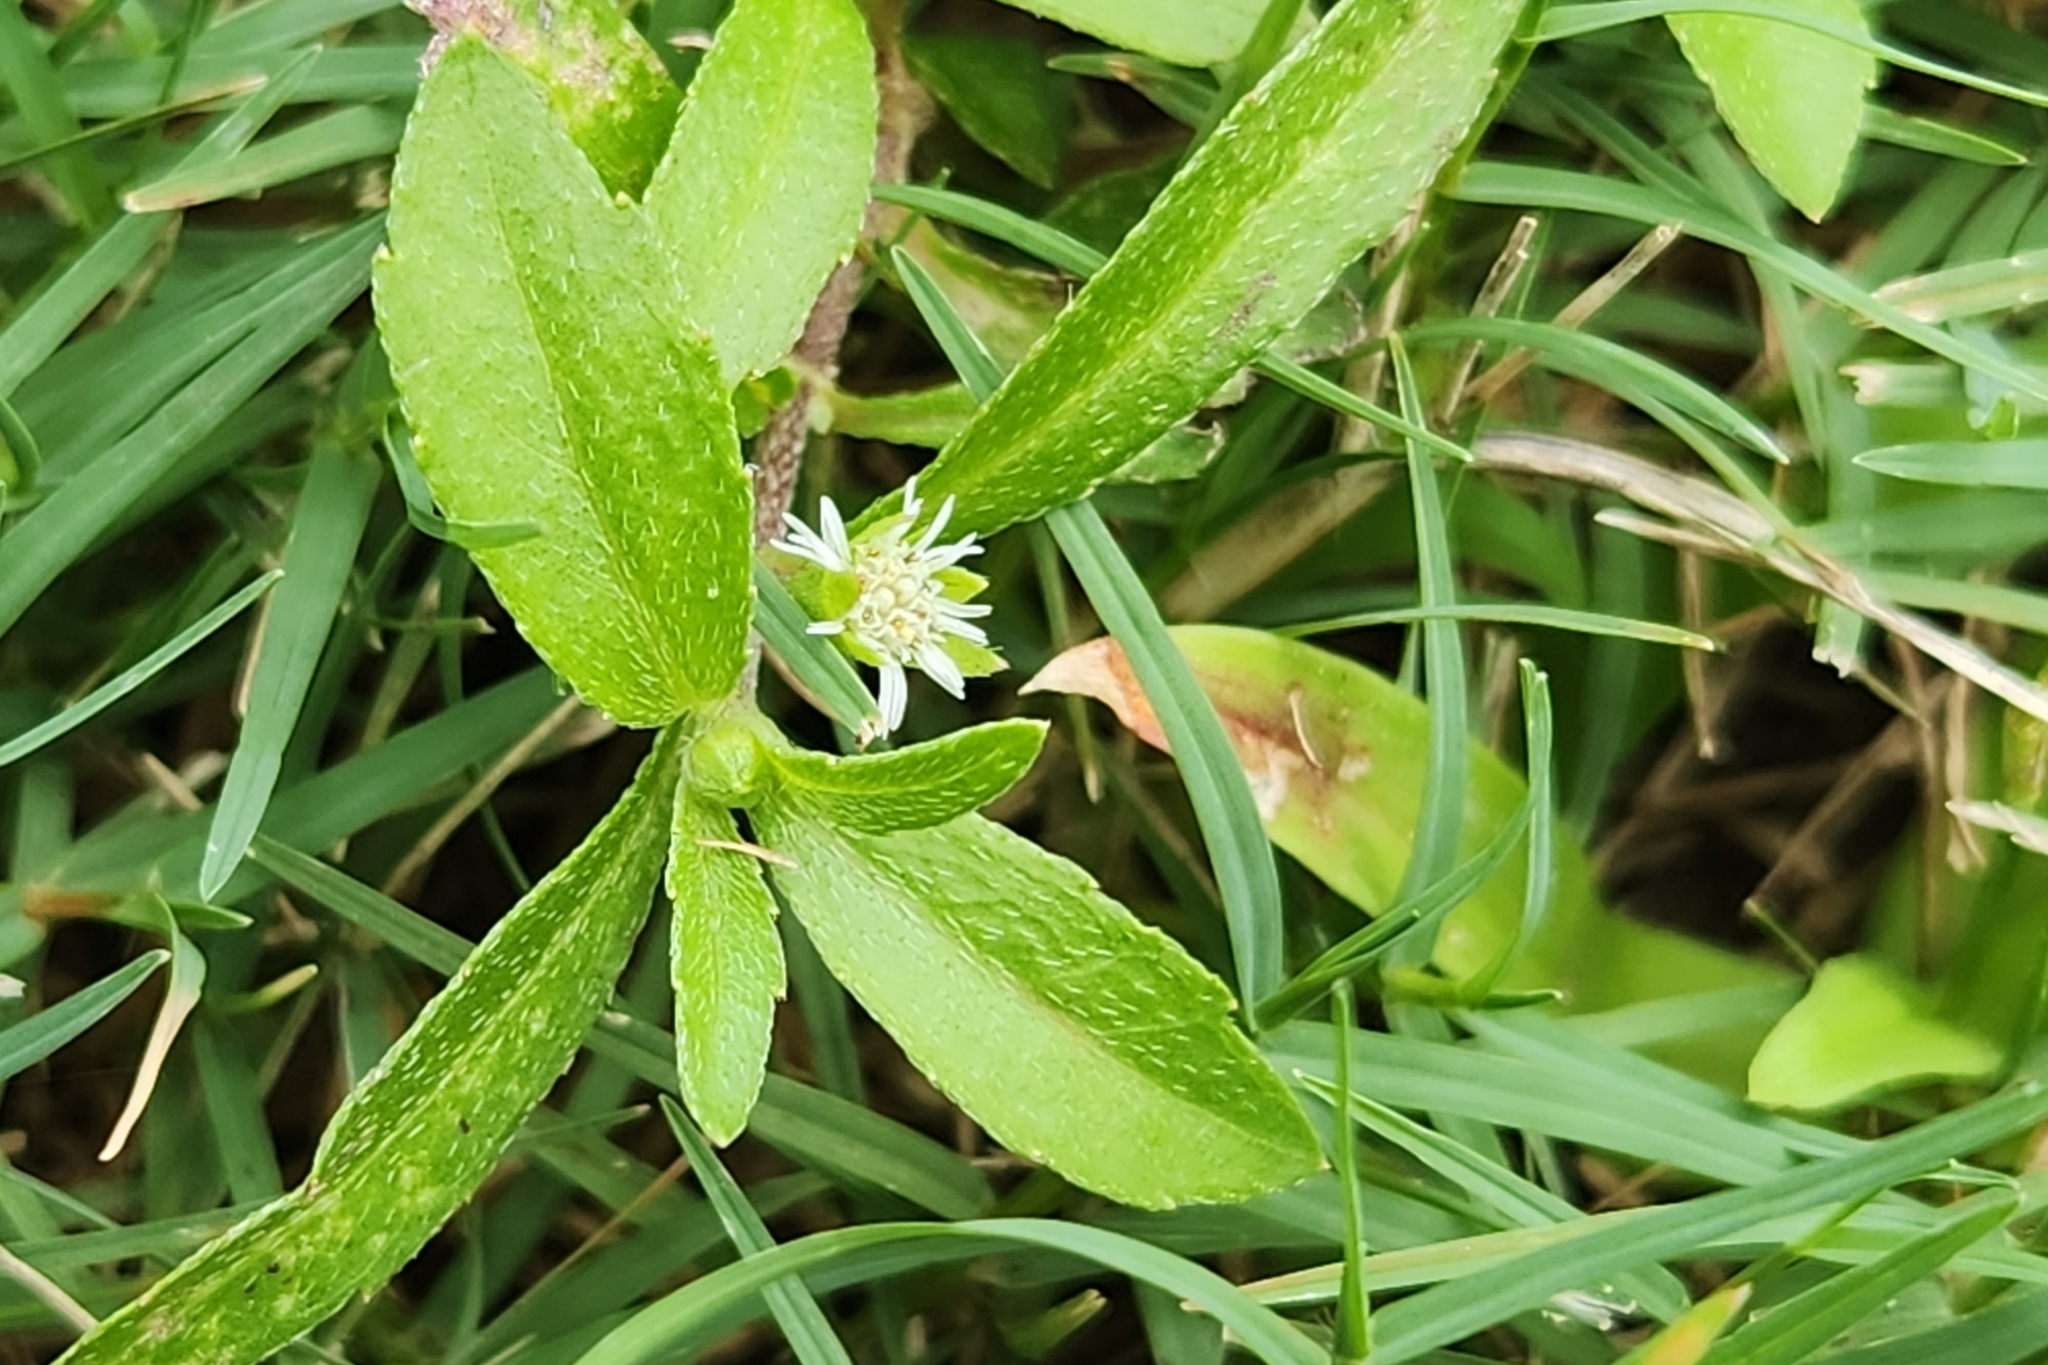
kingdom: Plantae
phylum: Tracheophyta
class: Magnoliopsida
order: Asterales
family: Asteraceae
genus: Eclipta
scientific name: Eclipta prostrata
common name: False daisy
